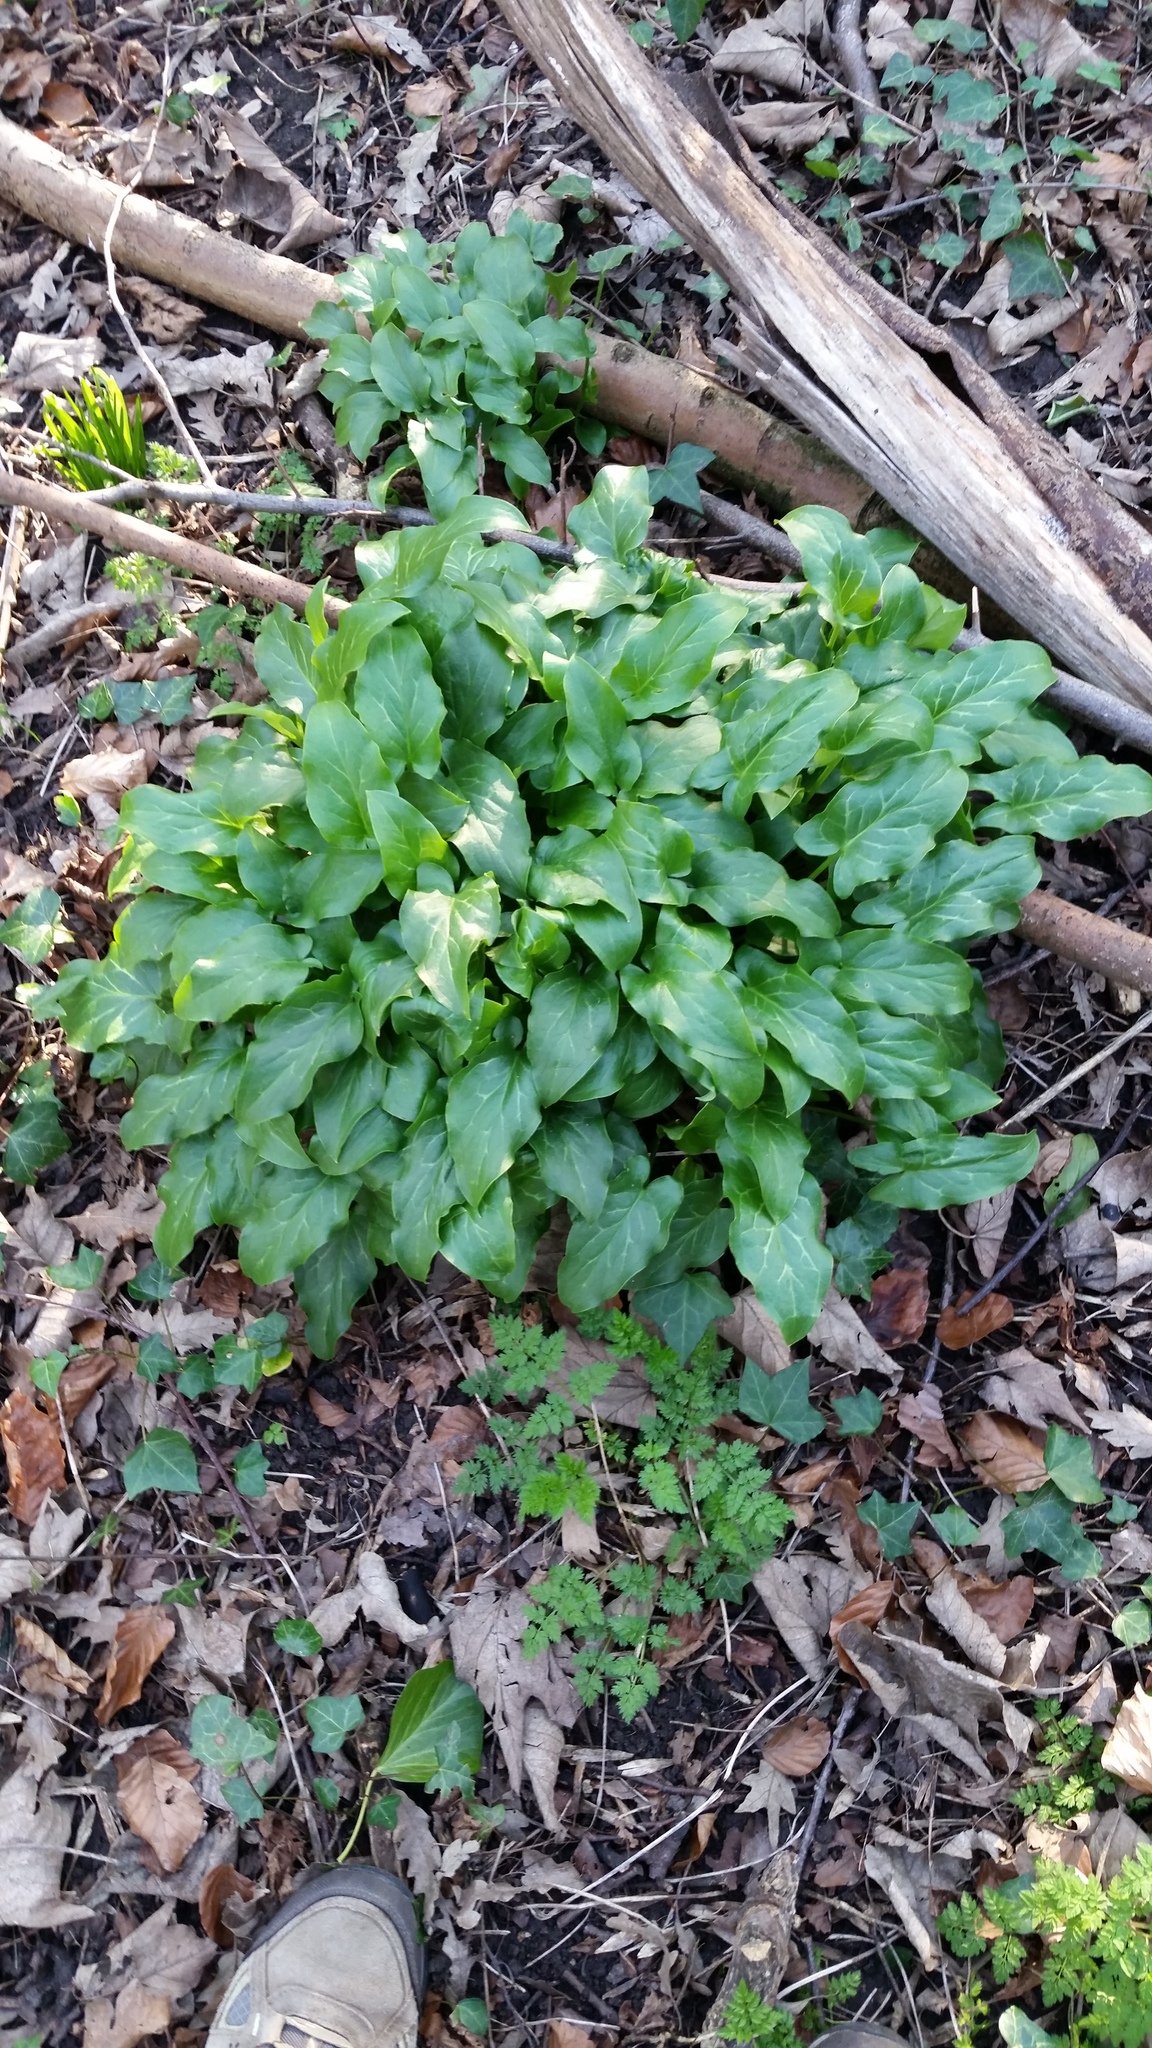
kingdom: Plantae
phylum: Tracheophyta
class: Liliopsida
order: Alismatales
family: Araceae
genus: Arum
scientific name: Arum maculatum
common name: Lords-and-ladies
